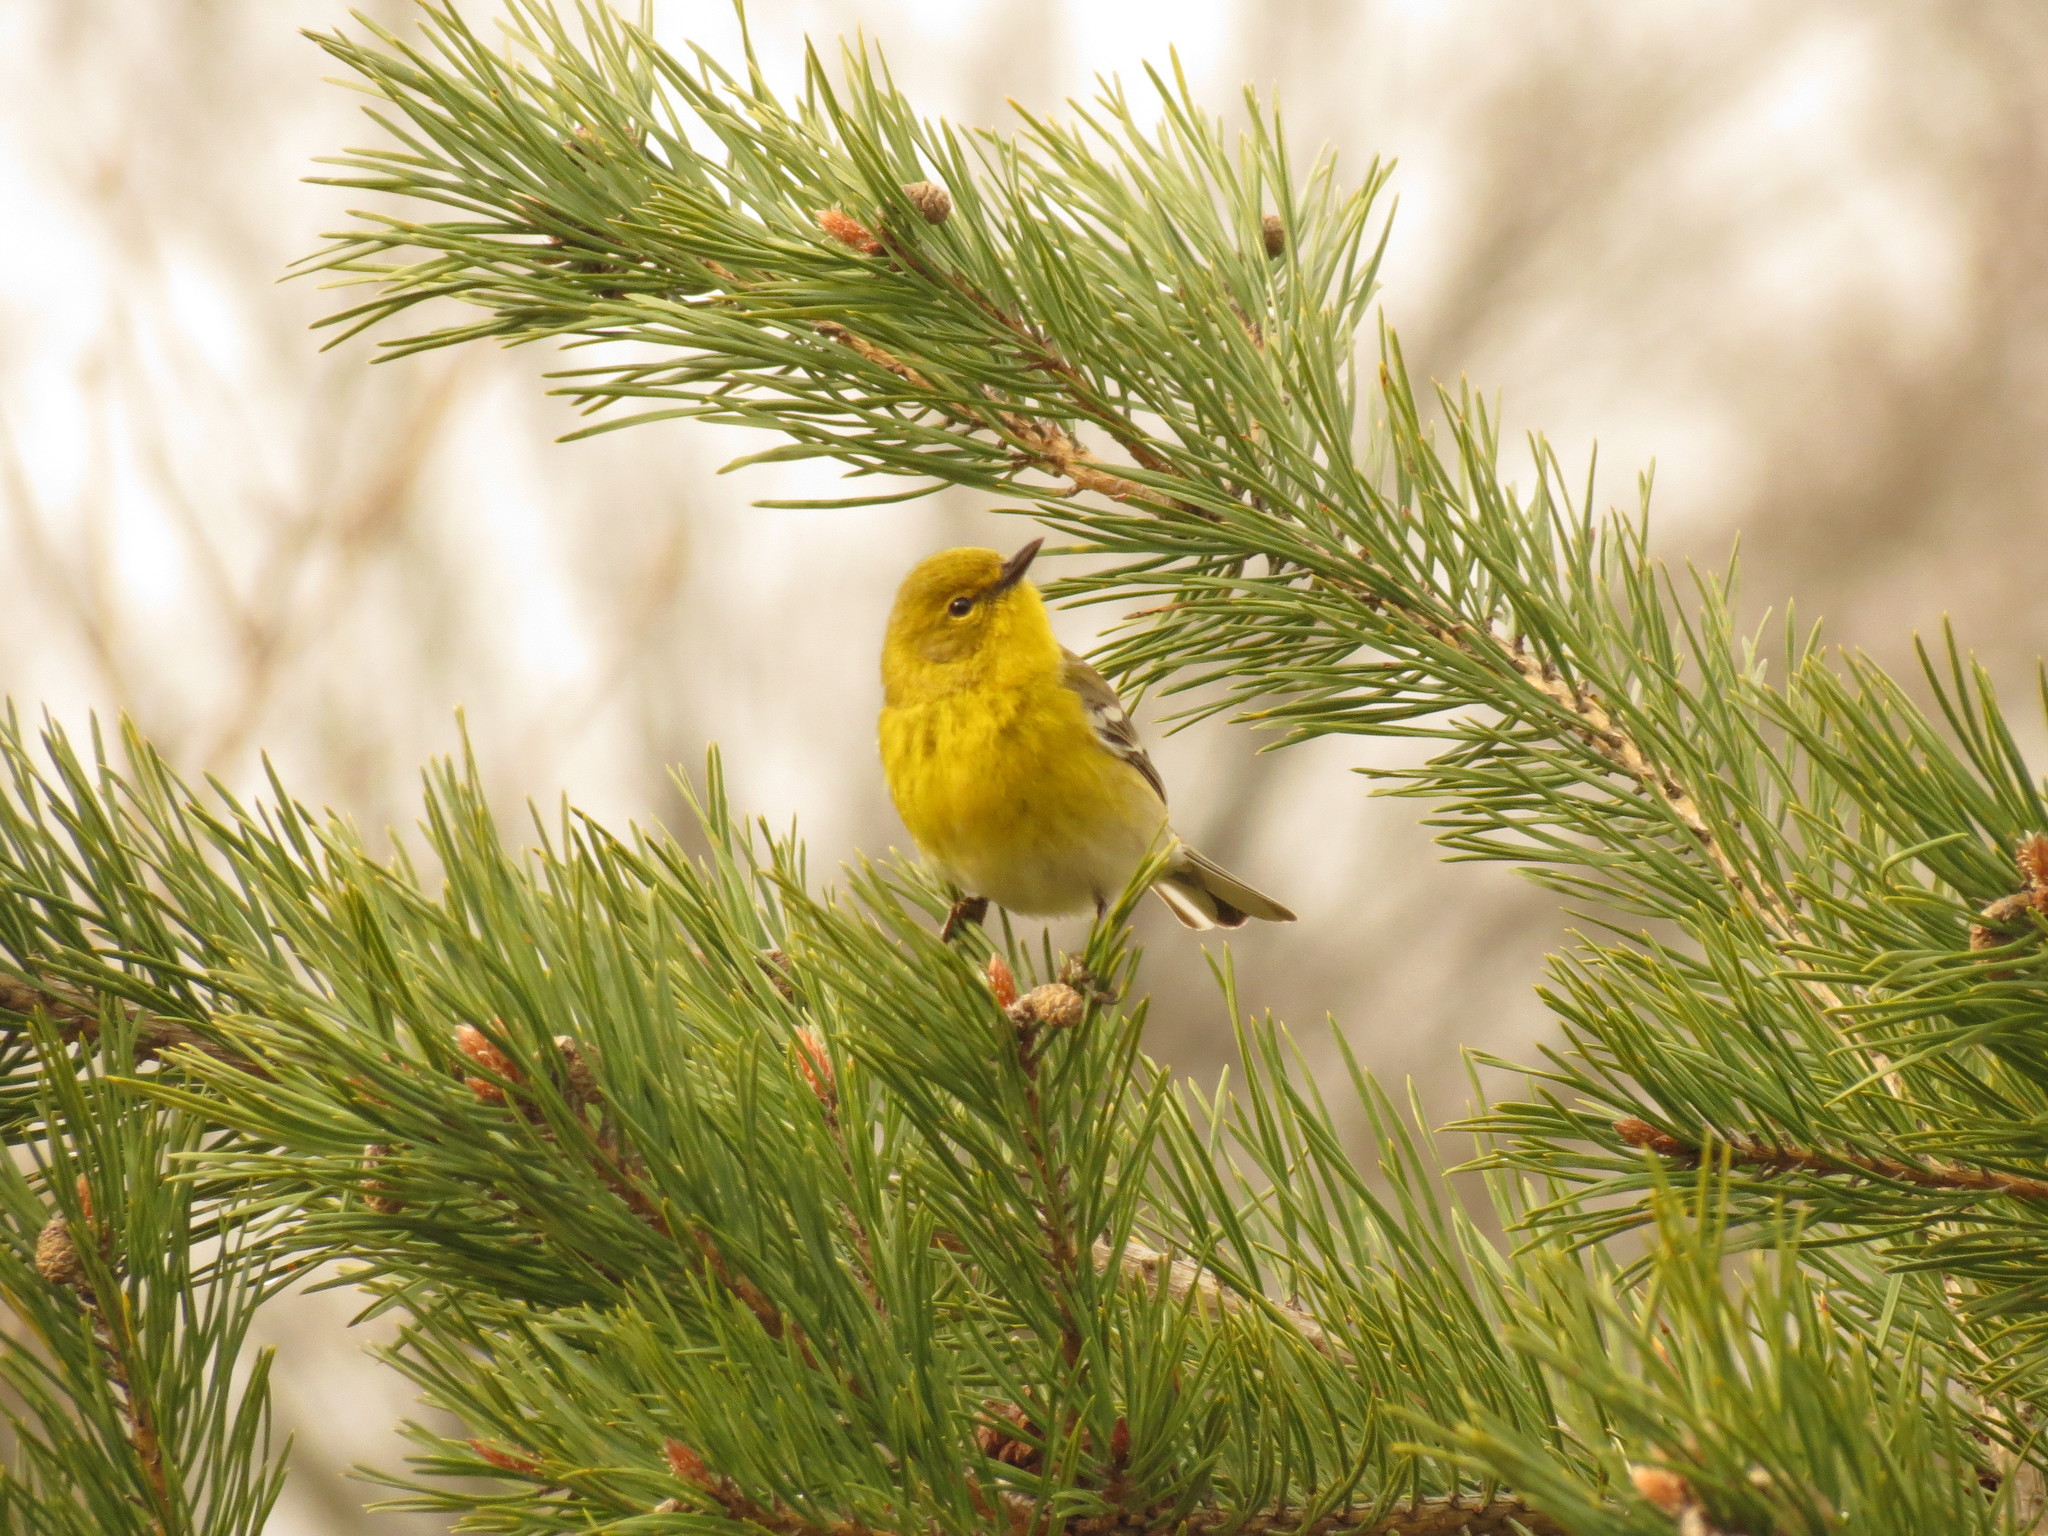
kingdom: Animalia
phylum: Chordata
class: Aves
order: Passeriformes
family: Parulidae
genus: Setophaga
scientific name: Setophaga pinus
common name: Pine warbler
